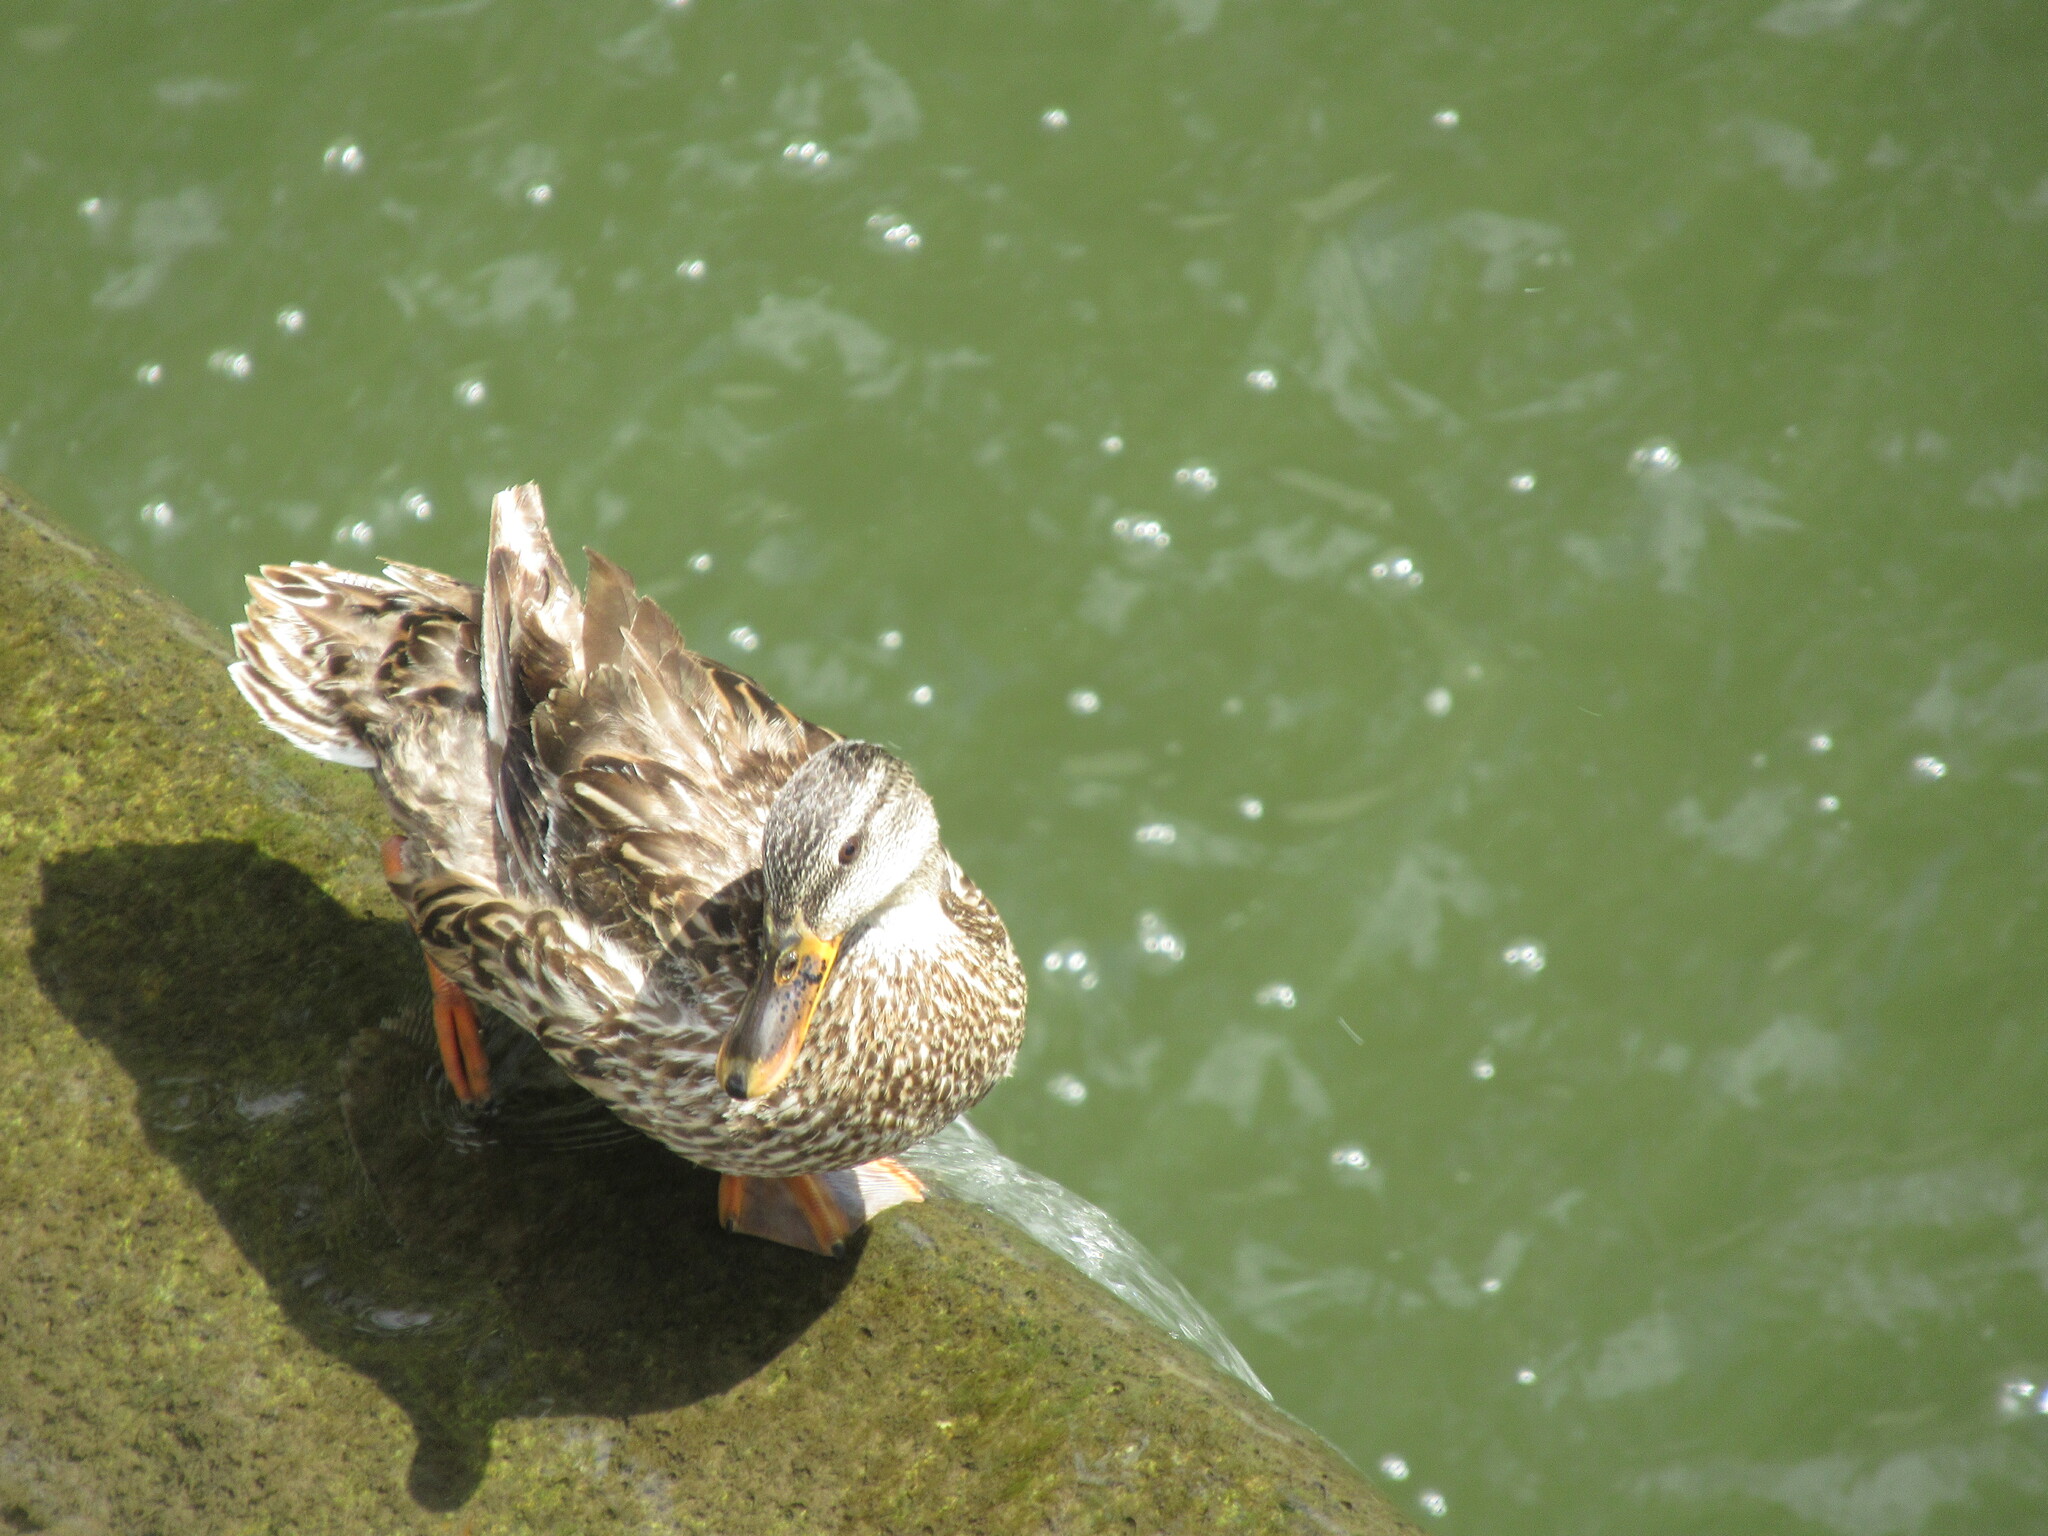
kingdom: Animalia
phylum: Chordata
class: Aves
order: Anseriformes
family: Anatidae
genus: Anas
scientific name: Anas platyrhynchos
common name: Mallard
